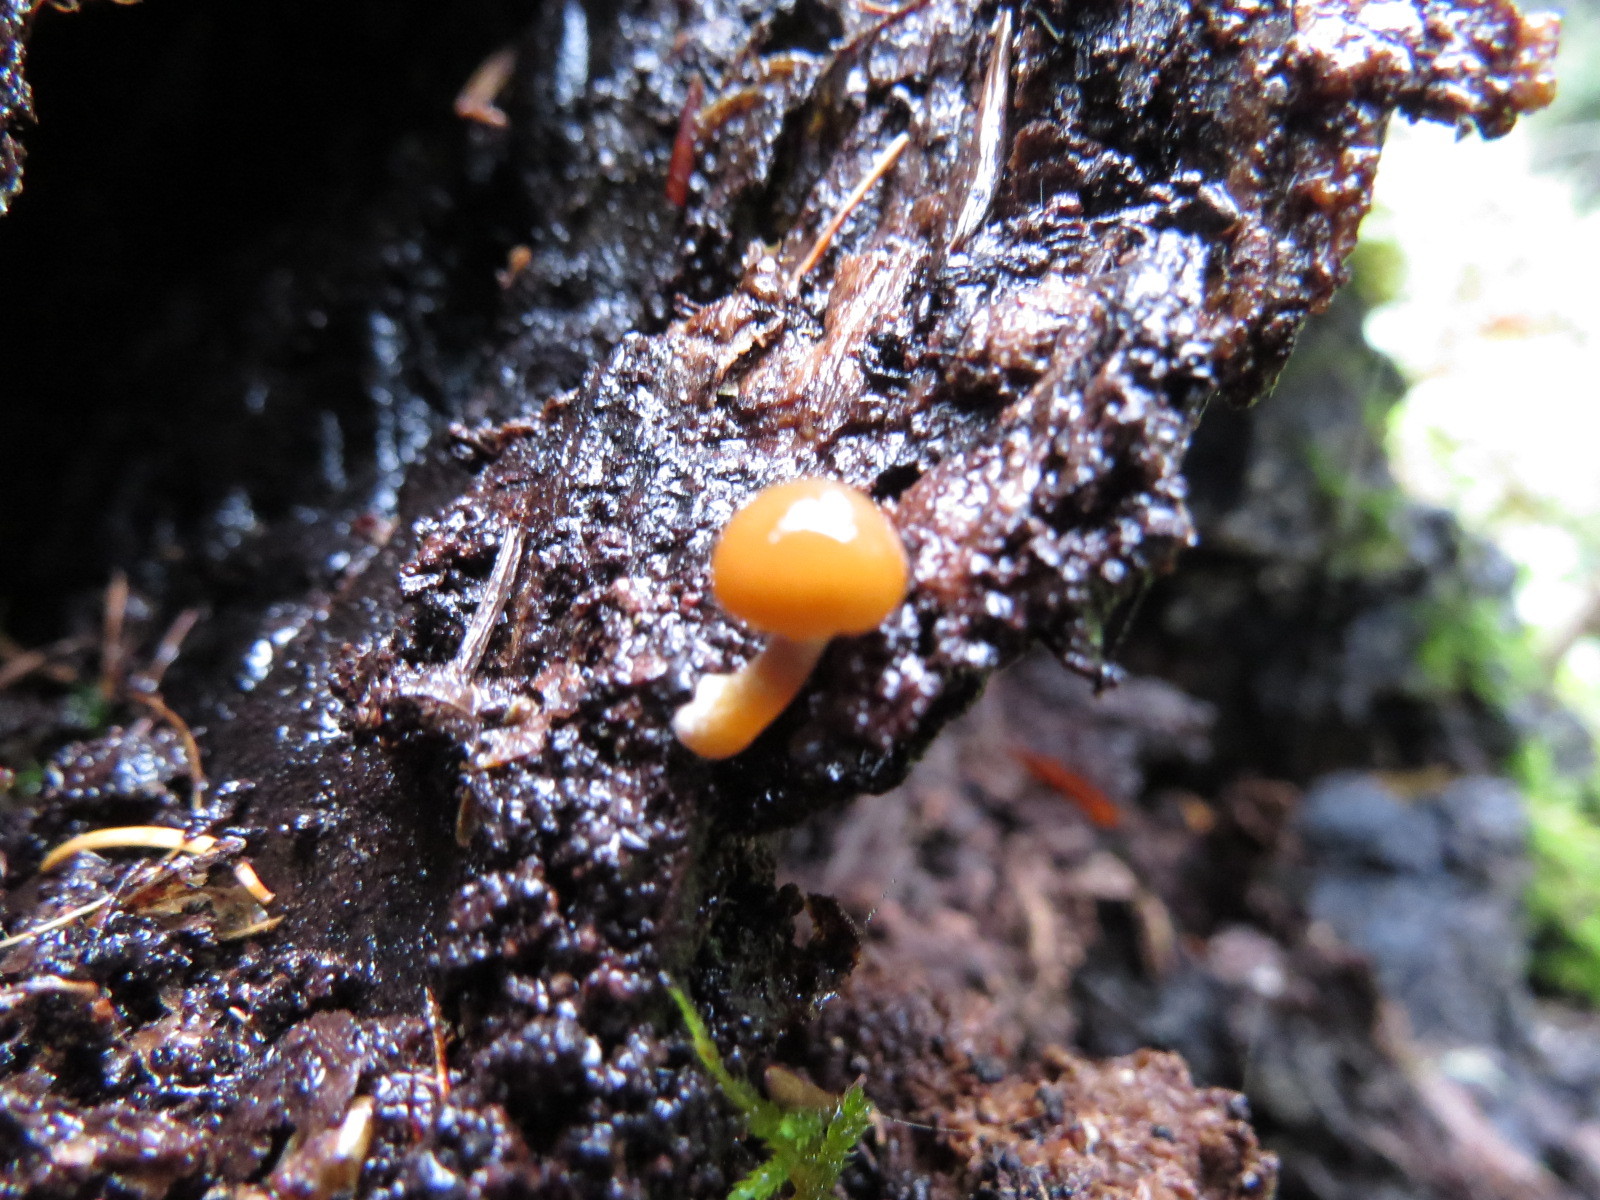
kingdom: Fungi
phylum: Basidiomycota
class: Agaricomycetes
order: Agaricales
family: Hymenogastraceae
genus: Galerina
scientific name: Galerina marginata
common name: Funeral bell
